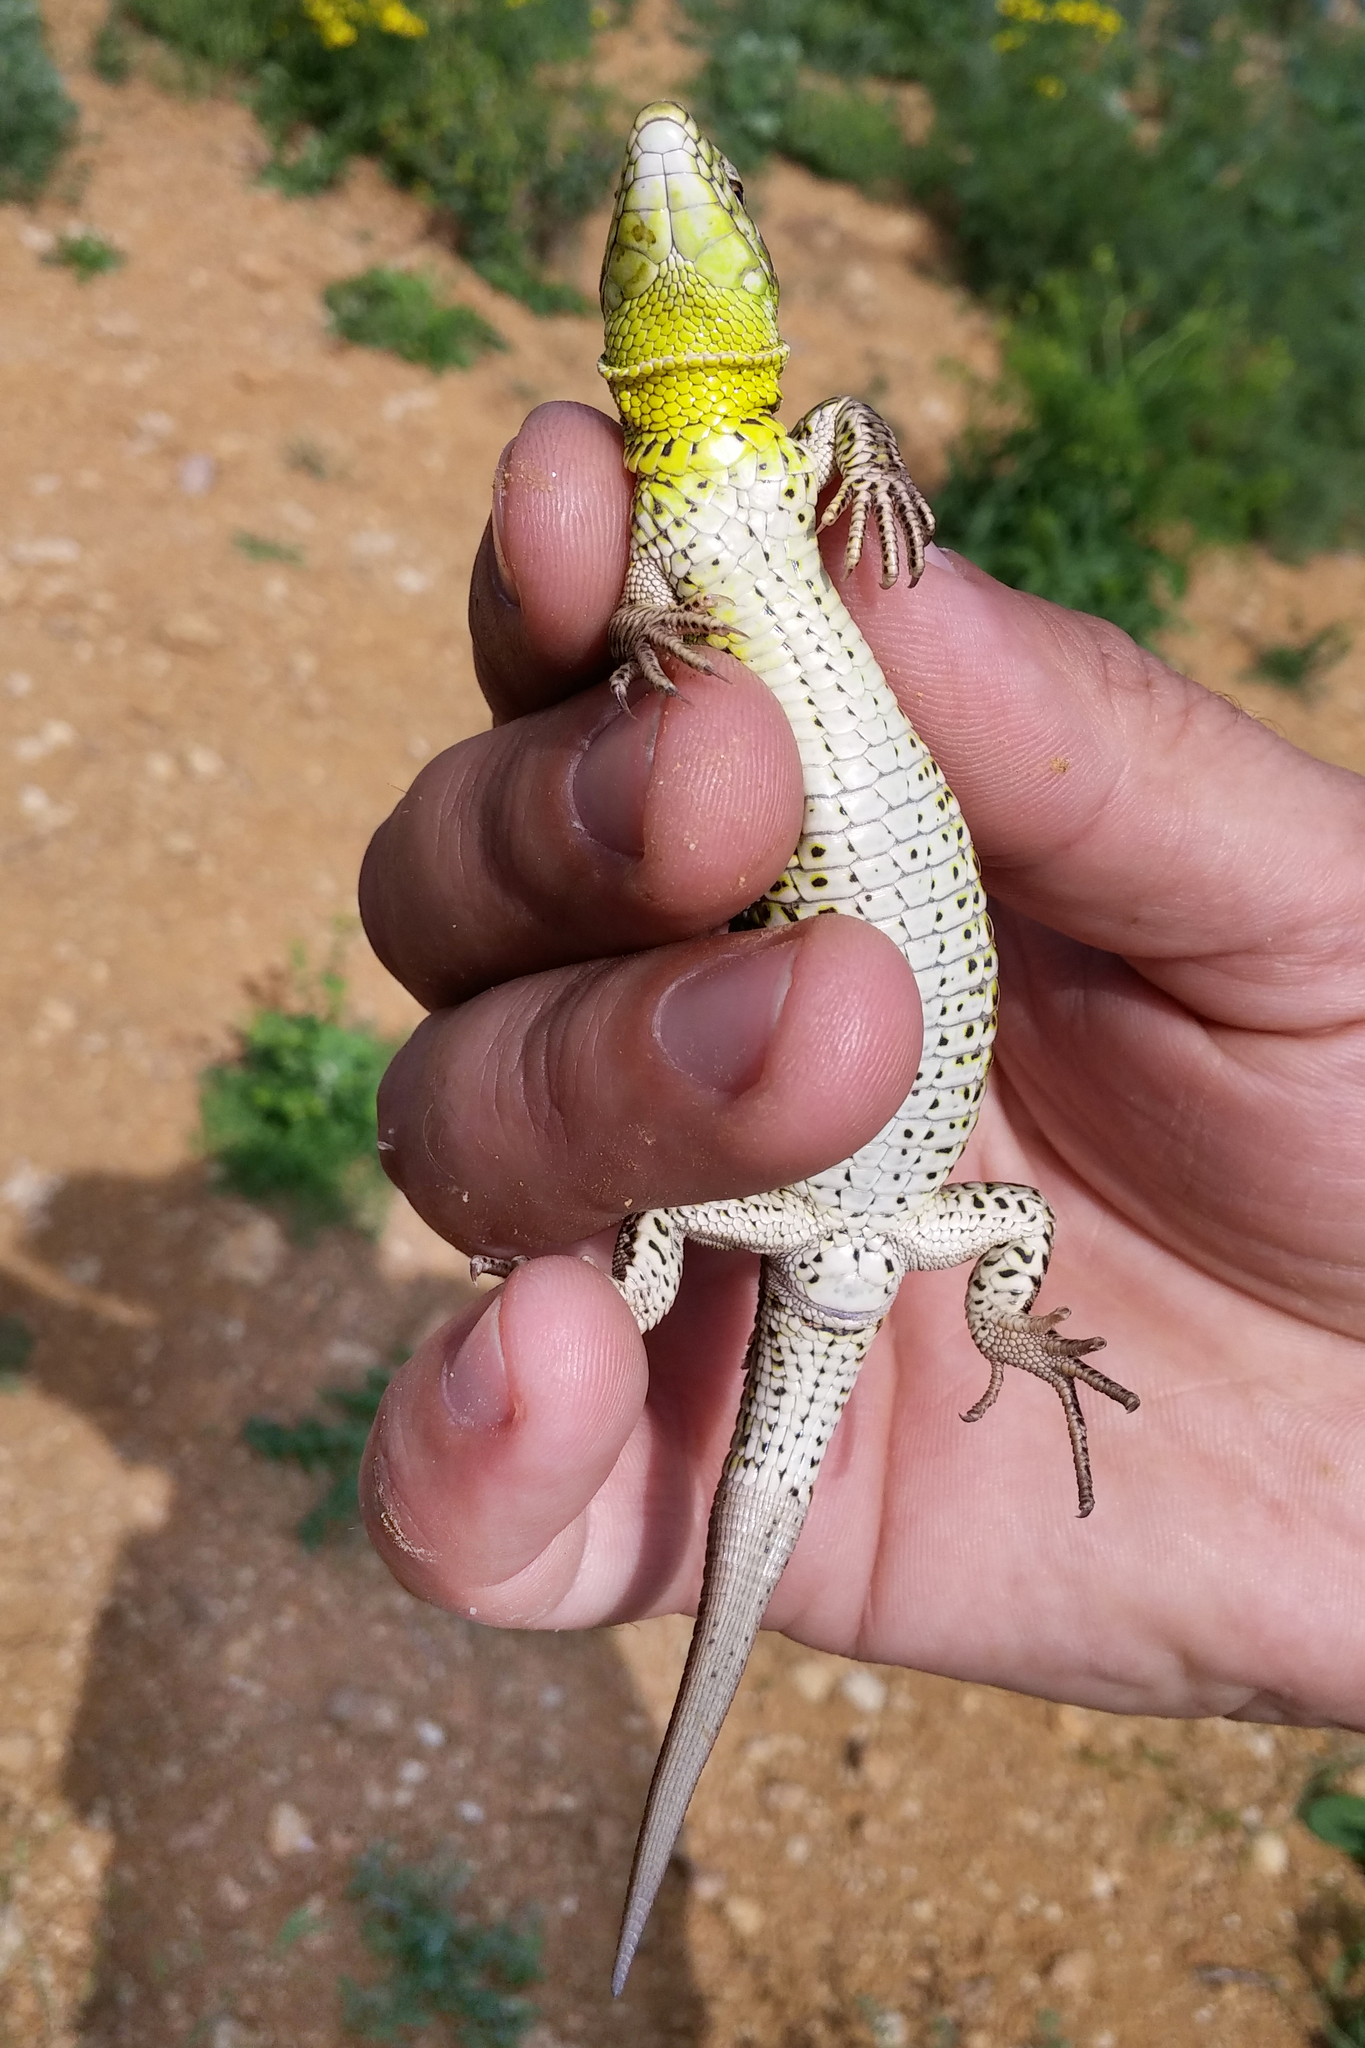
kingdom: Animalia
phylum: Chordata
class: Squamata
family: Lacertidae
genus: Lacerta
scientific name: Lacerta agilis
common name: Sand lizard
